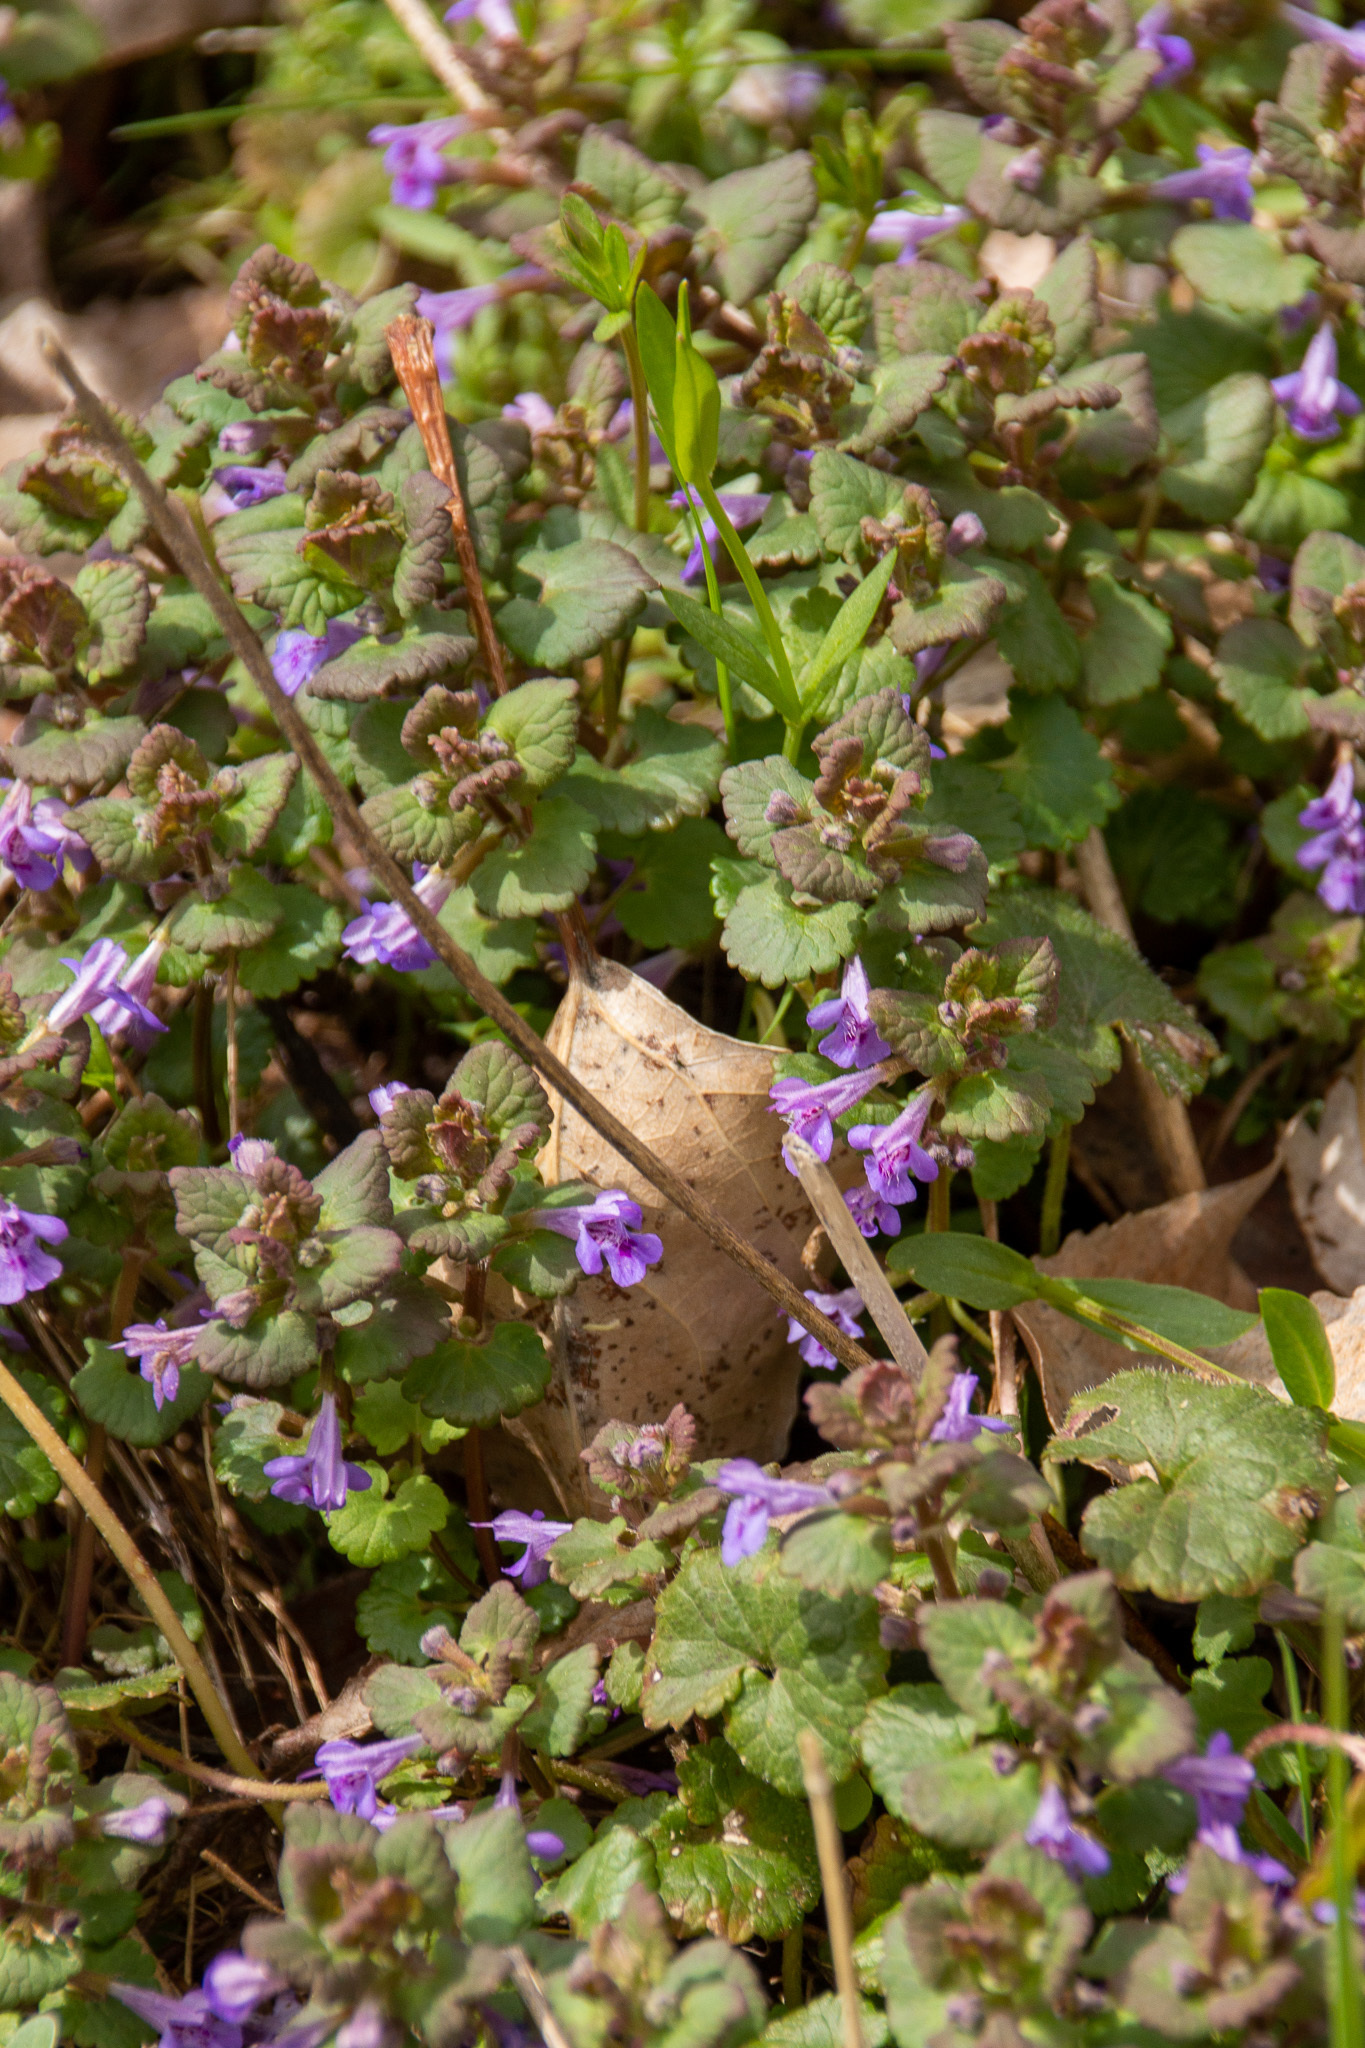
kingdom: Plantae
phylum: Tracheophyta
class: Magnoliopsida
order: Lamiales
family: Lamiaceae
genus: Glechoma
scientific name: Glechoma hederacea
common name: Ground ivy
